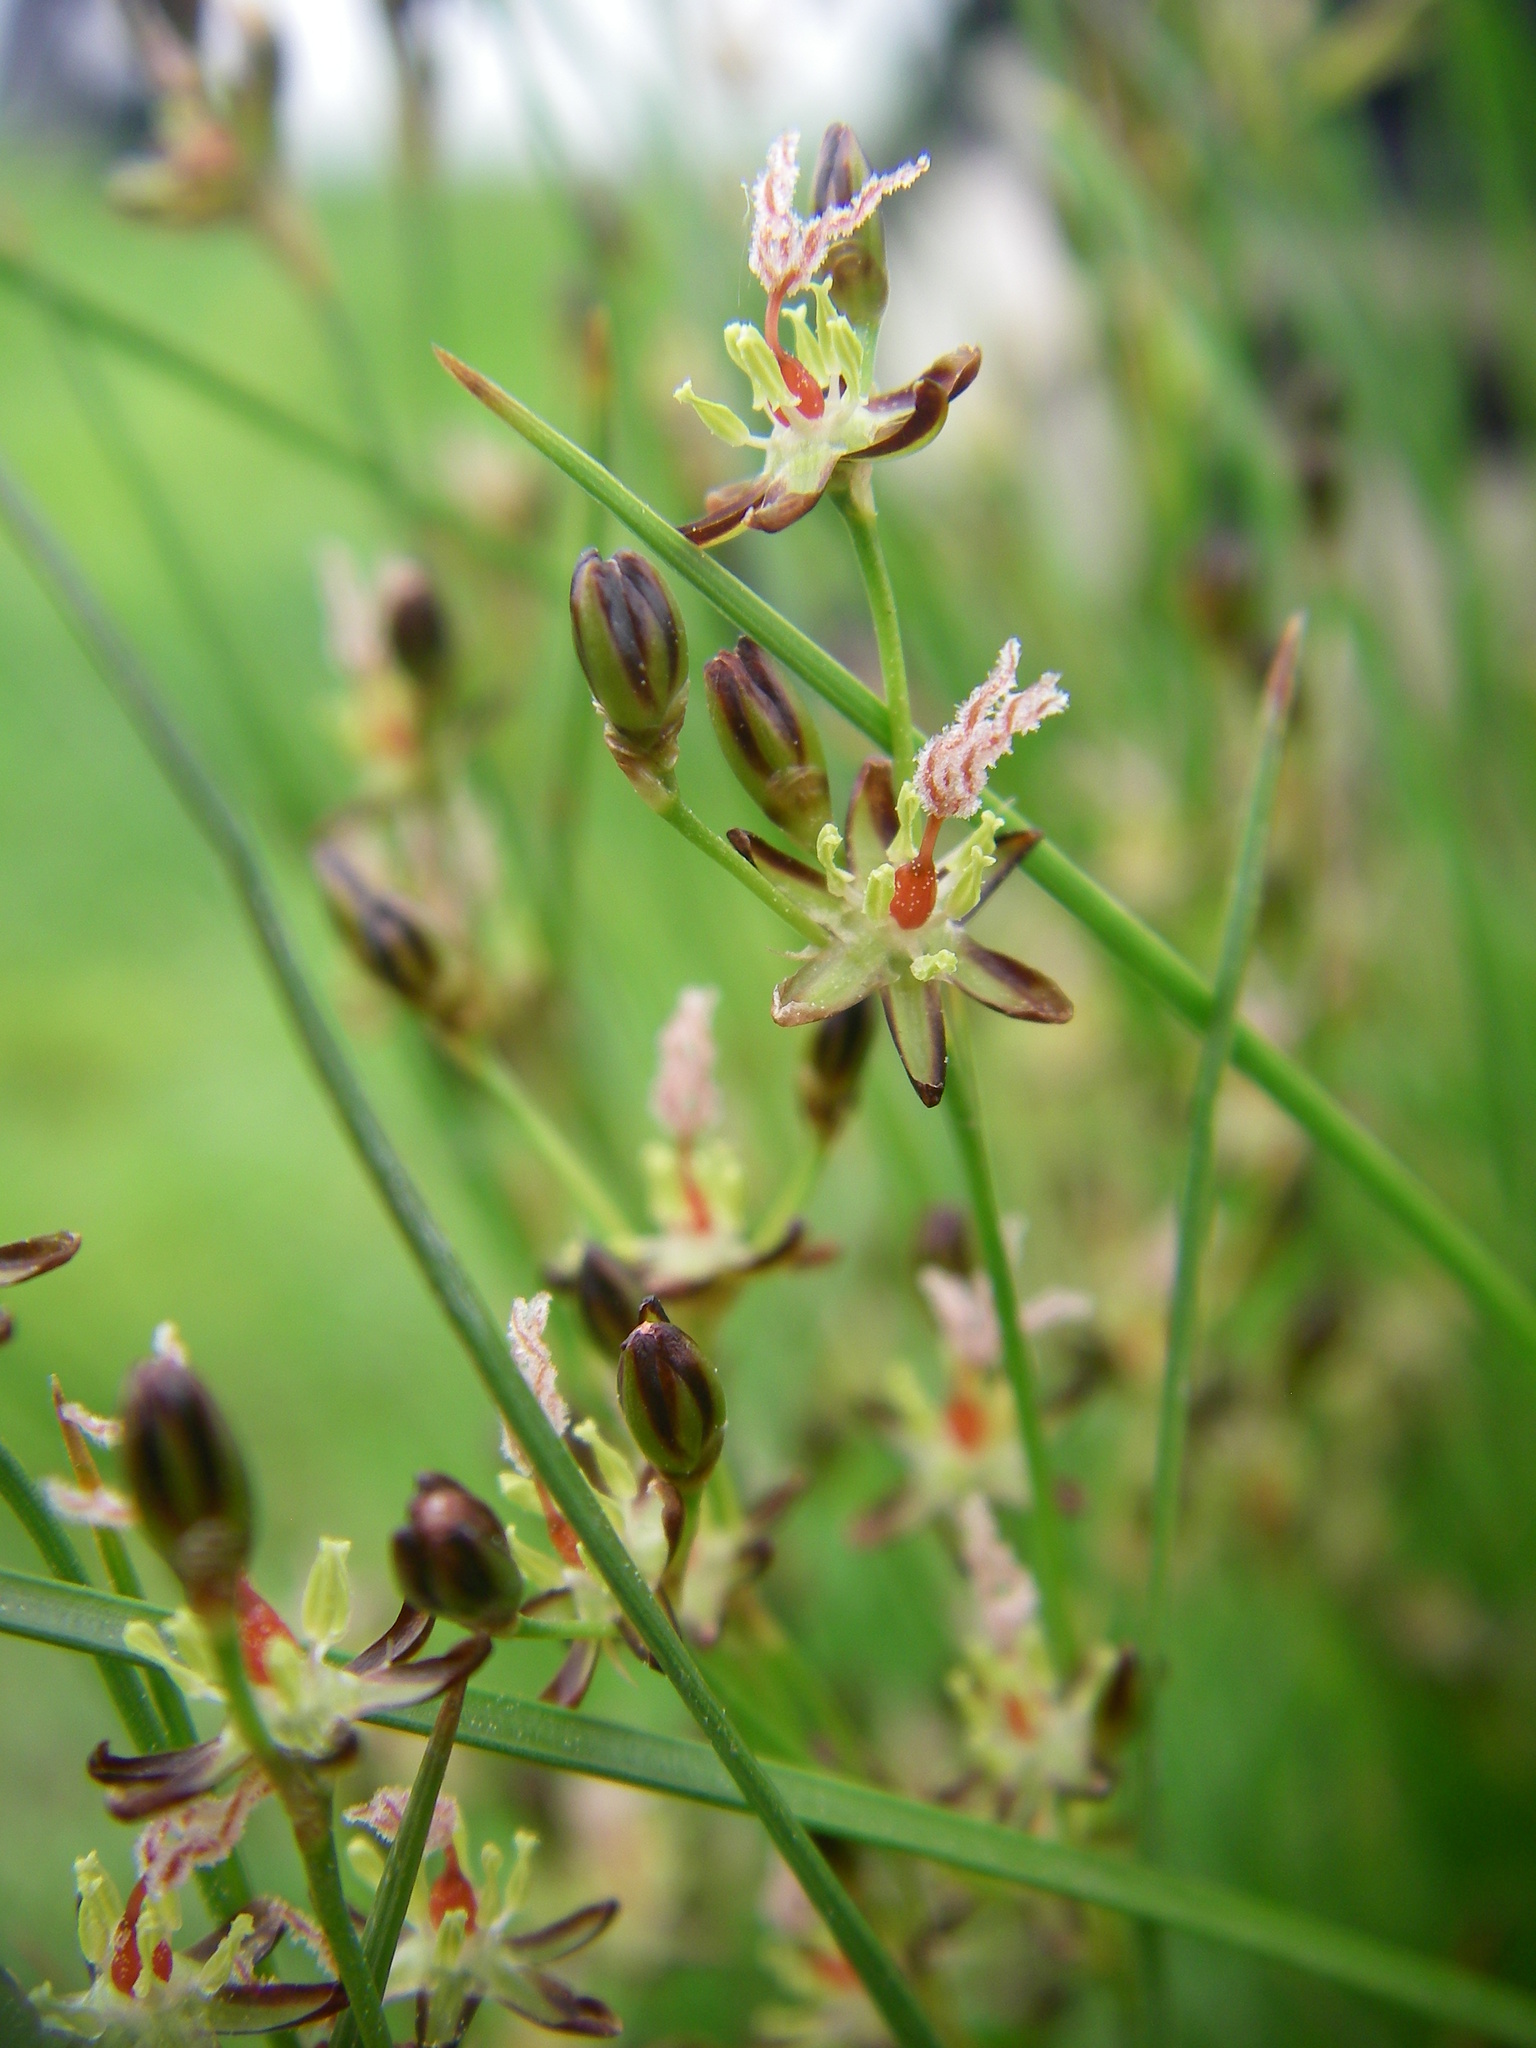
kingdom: Plantae
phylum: Tracheophyta
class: Liliopsida
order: Poales
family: Juncaceae
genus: Juncus
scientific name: Juncus gerardi
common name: Saltmarsh rush
